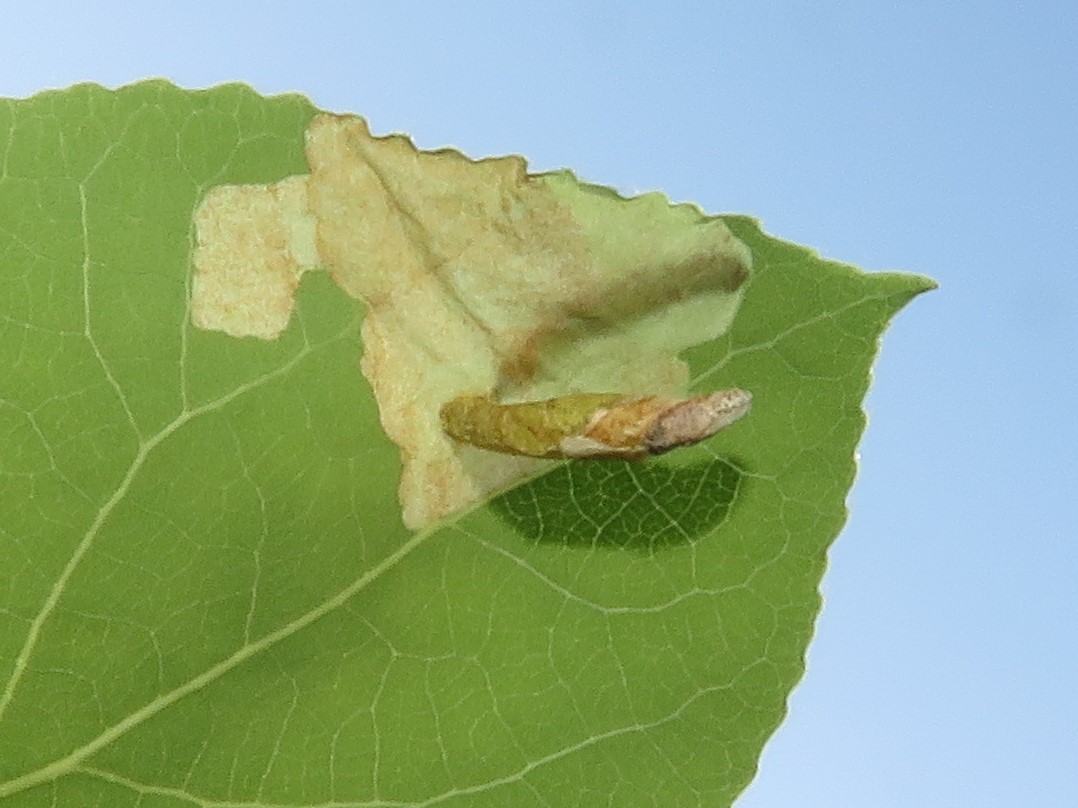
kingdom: Animalia
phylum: Arthropoda
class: Insecta
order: Lepidoptera
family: Coleophoridae
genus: Coleophora
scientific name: Coleophora pruniella
